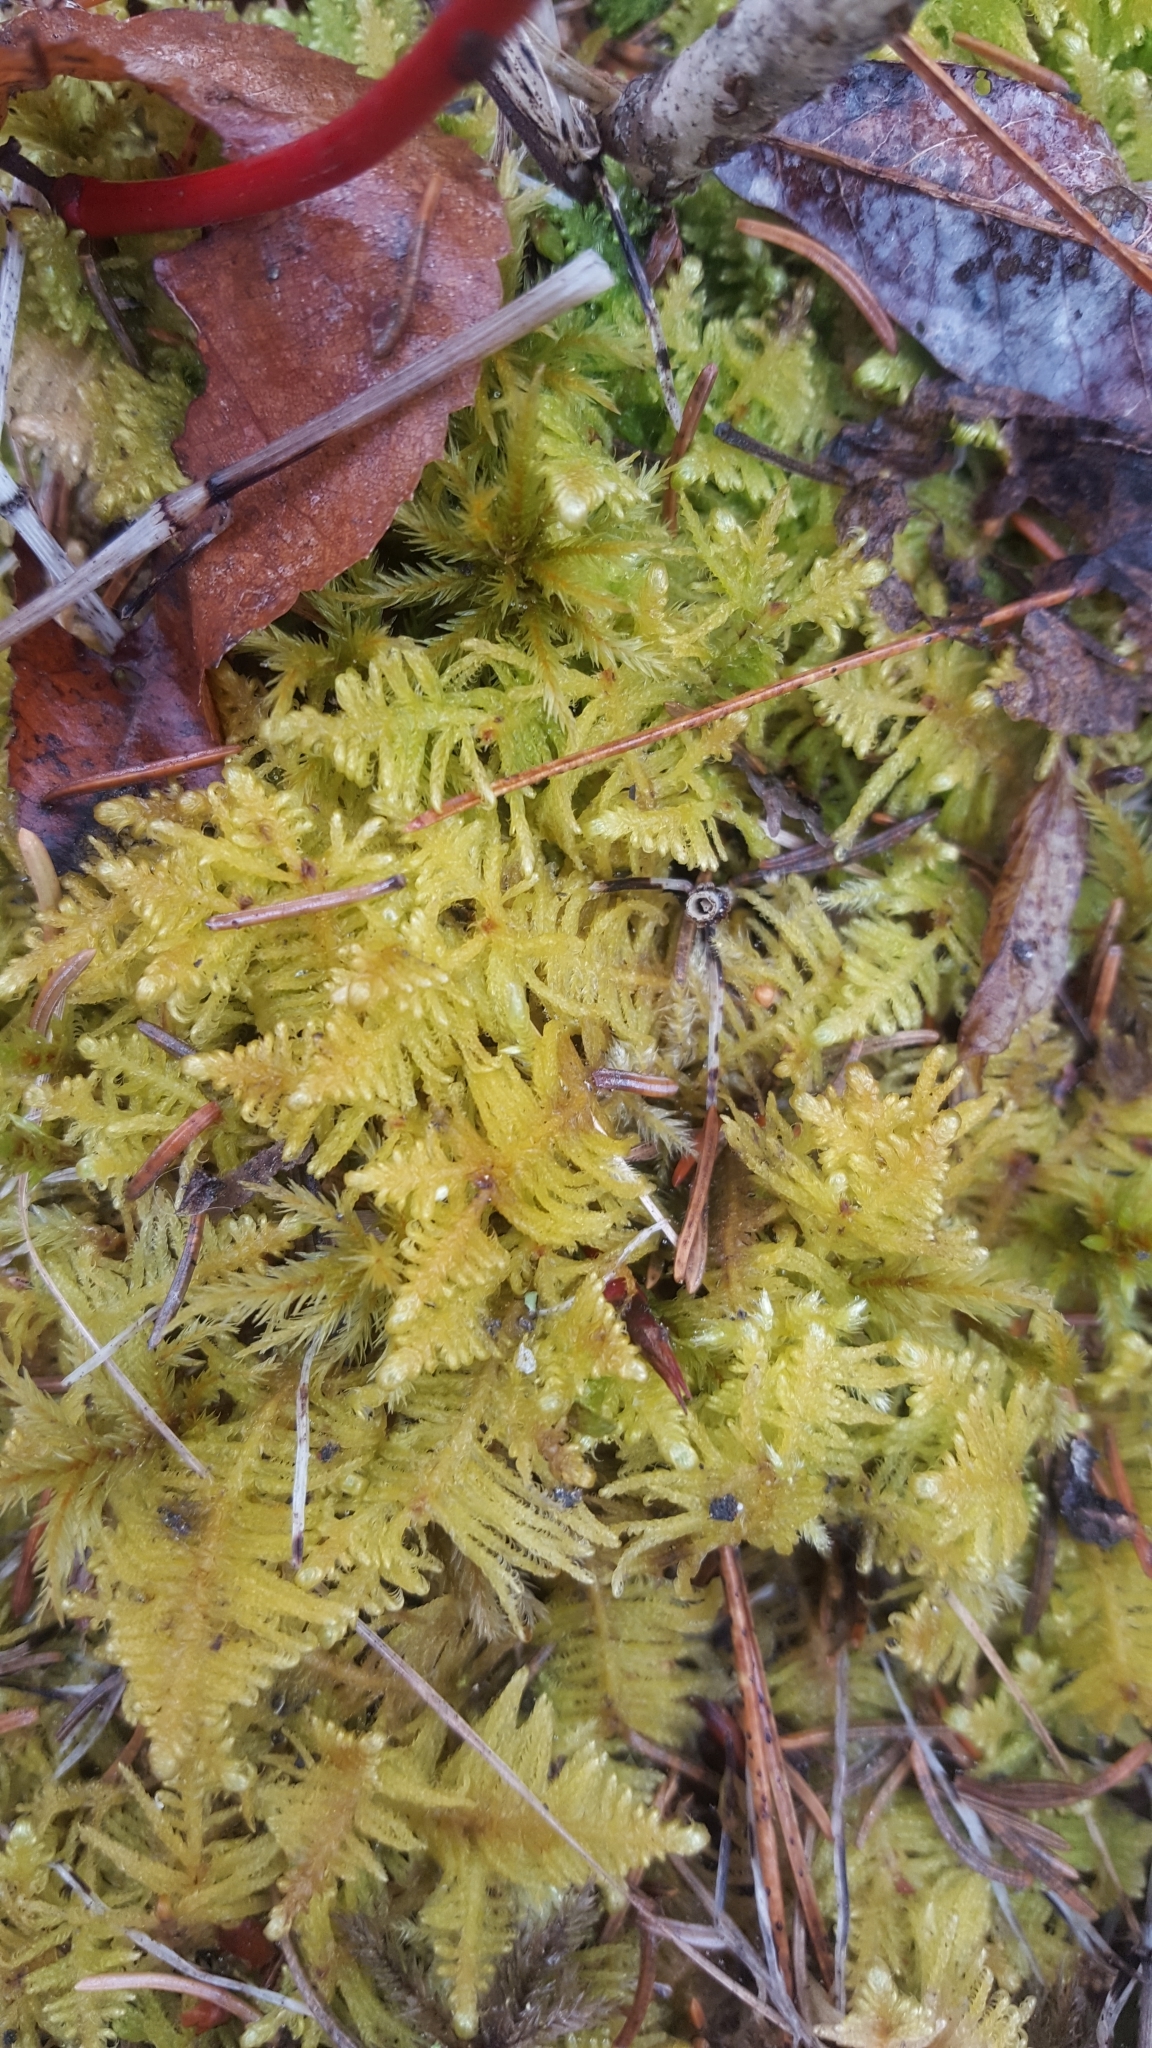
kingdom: Plantae
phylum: Bryophyta
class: Bryopsida
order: Hypnales
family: Pylaisiaceae
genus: Ptilium
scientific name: Ptilium crista-castrensis
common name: Knight's plume moss
